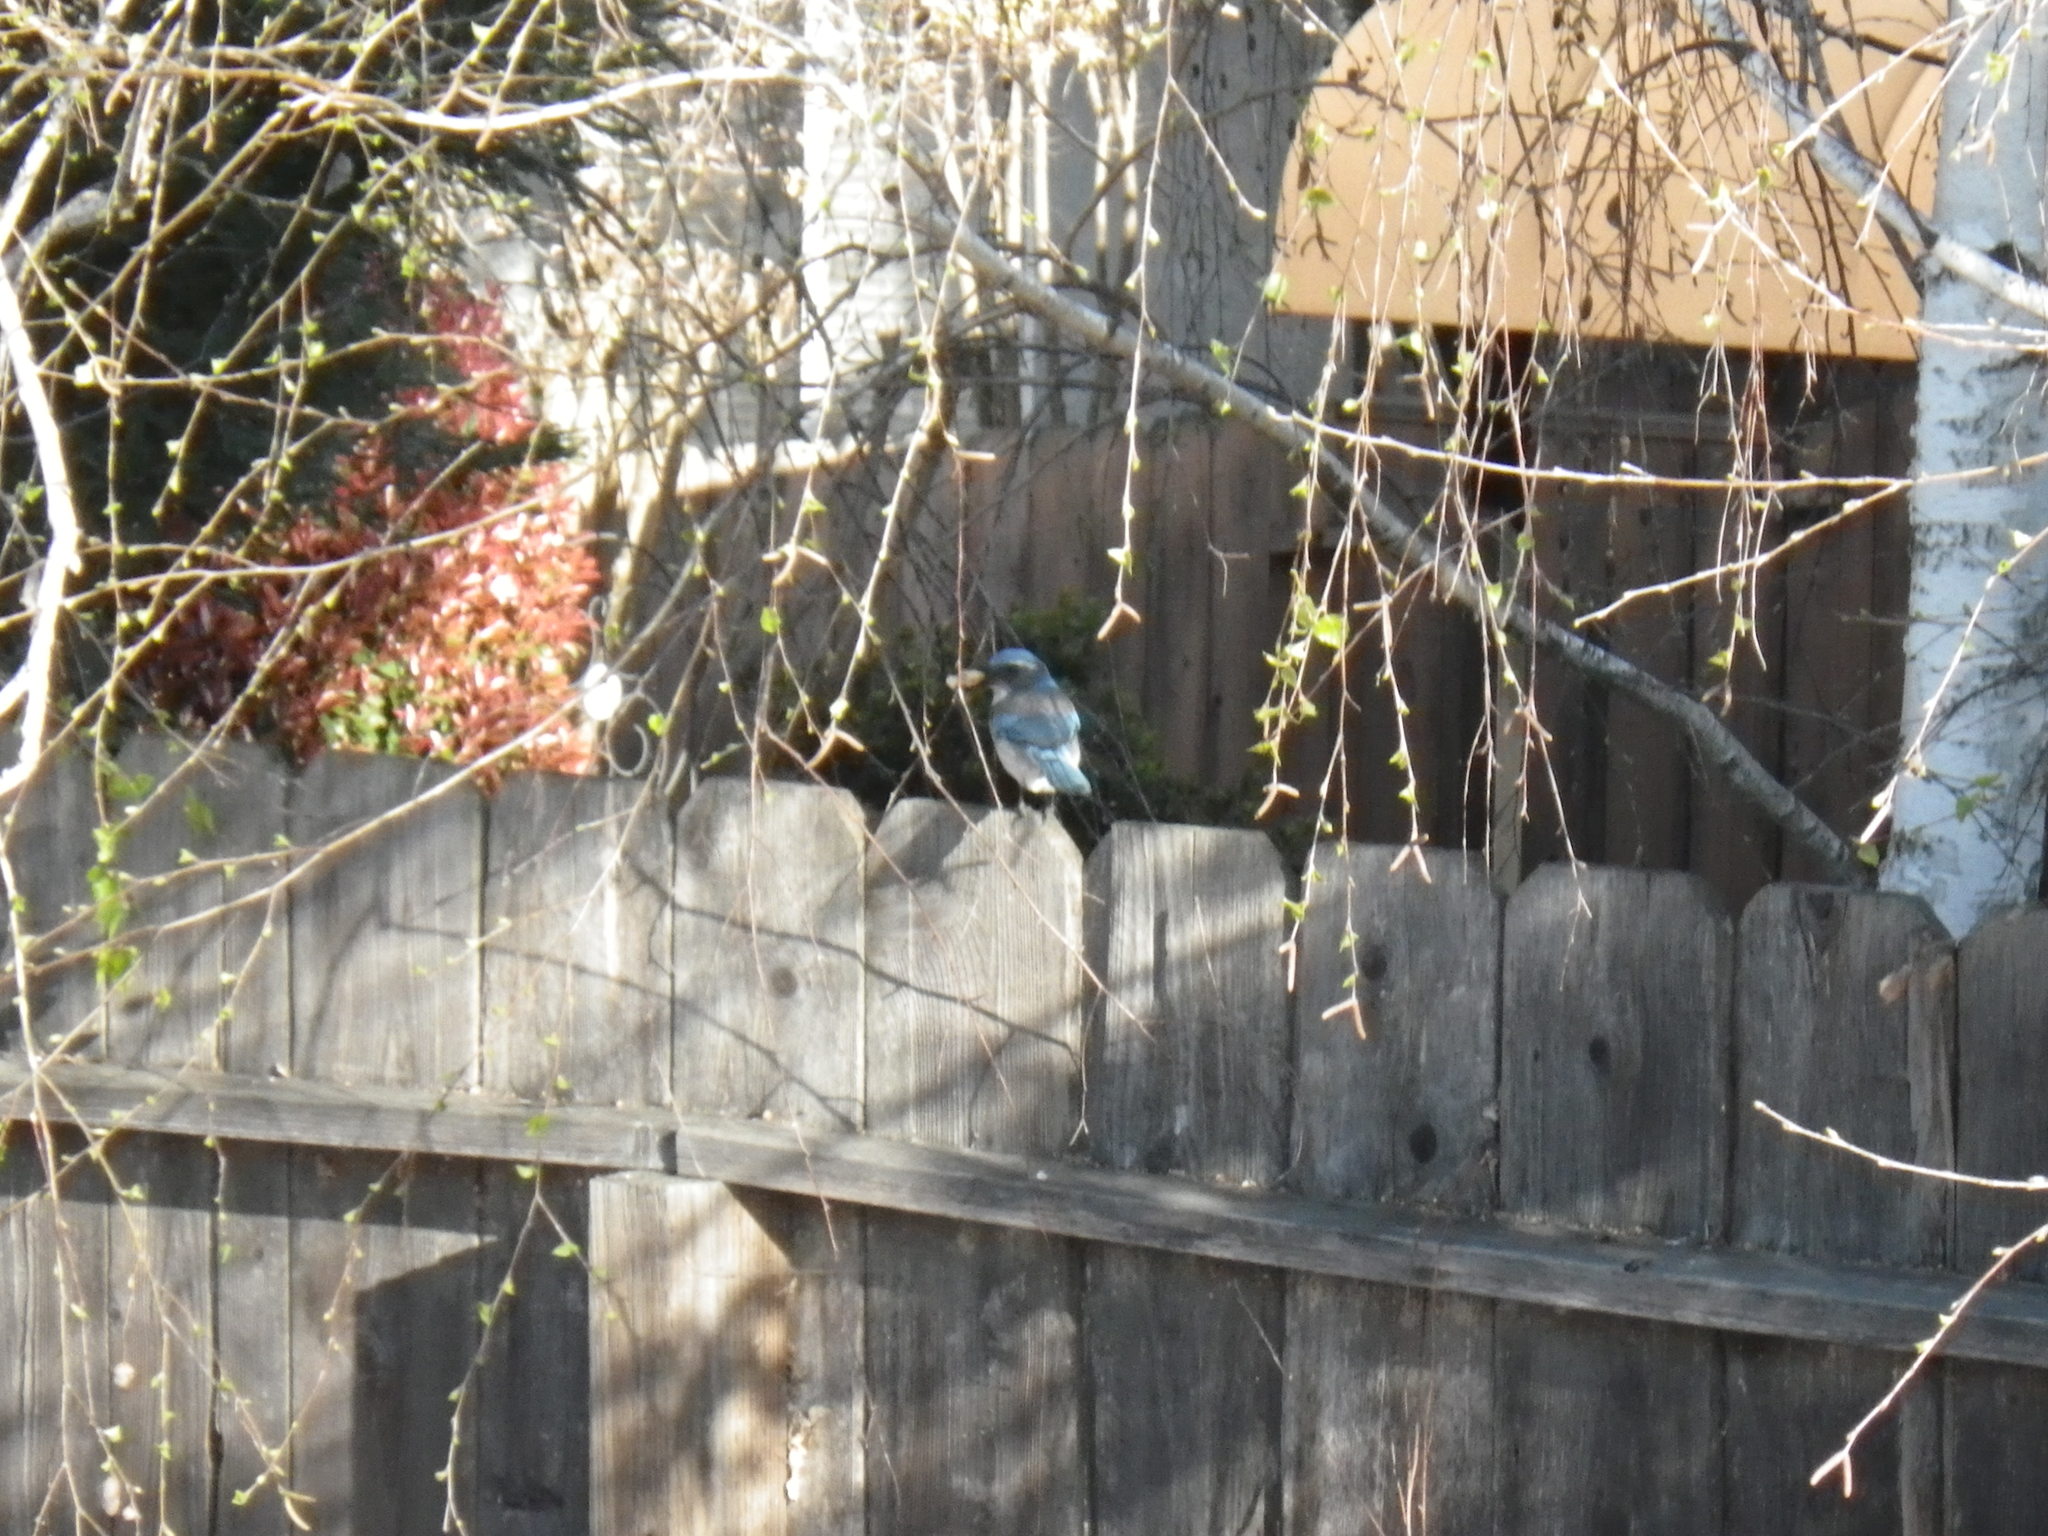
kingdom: Animalia
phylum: Chordata
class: Aves
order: Passeriformes
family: Corvidae
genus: Aphelocoma
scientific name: Aphelocoma californica
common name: California scrub-jay
